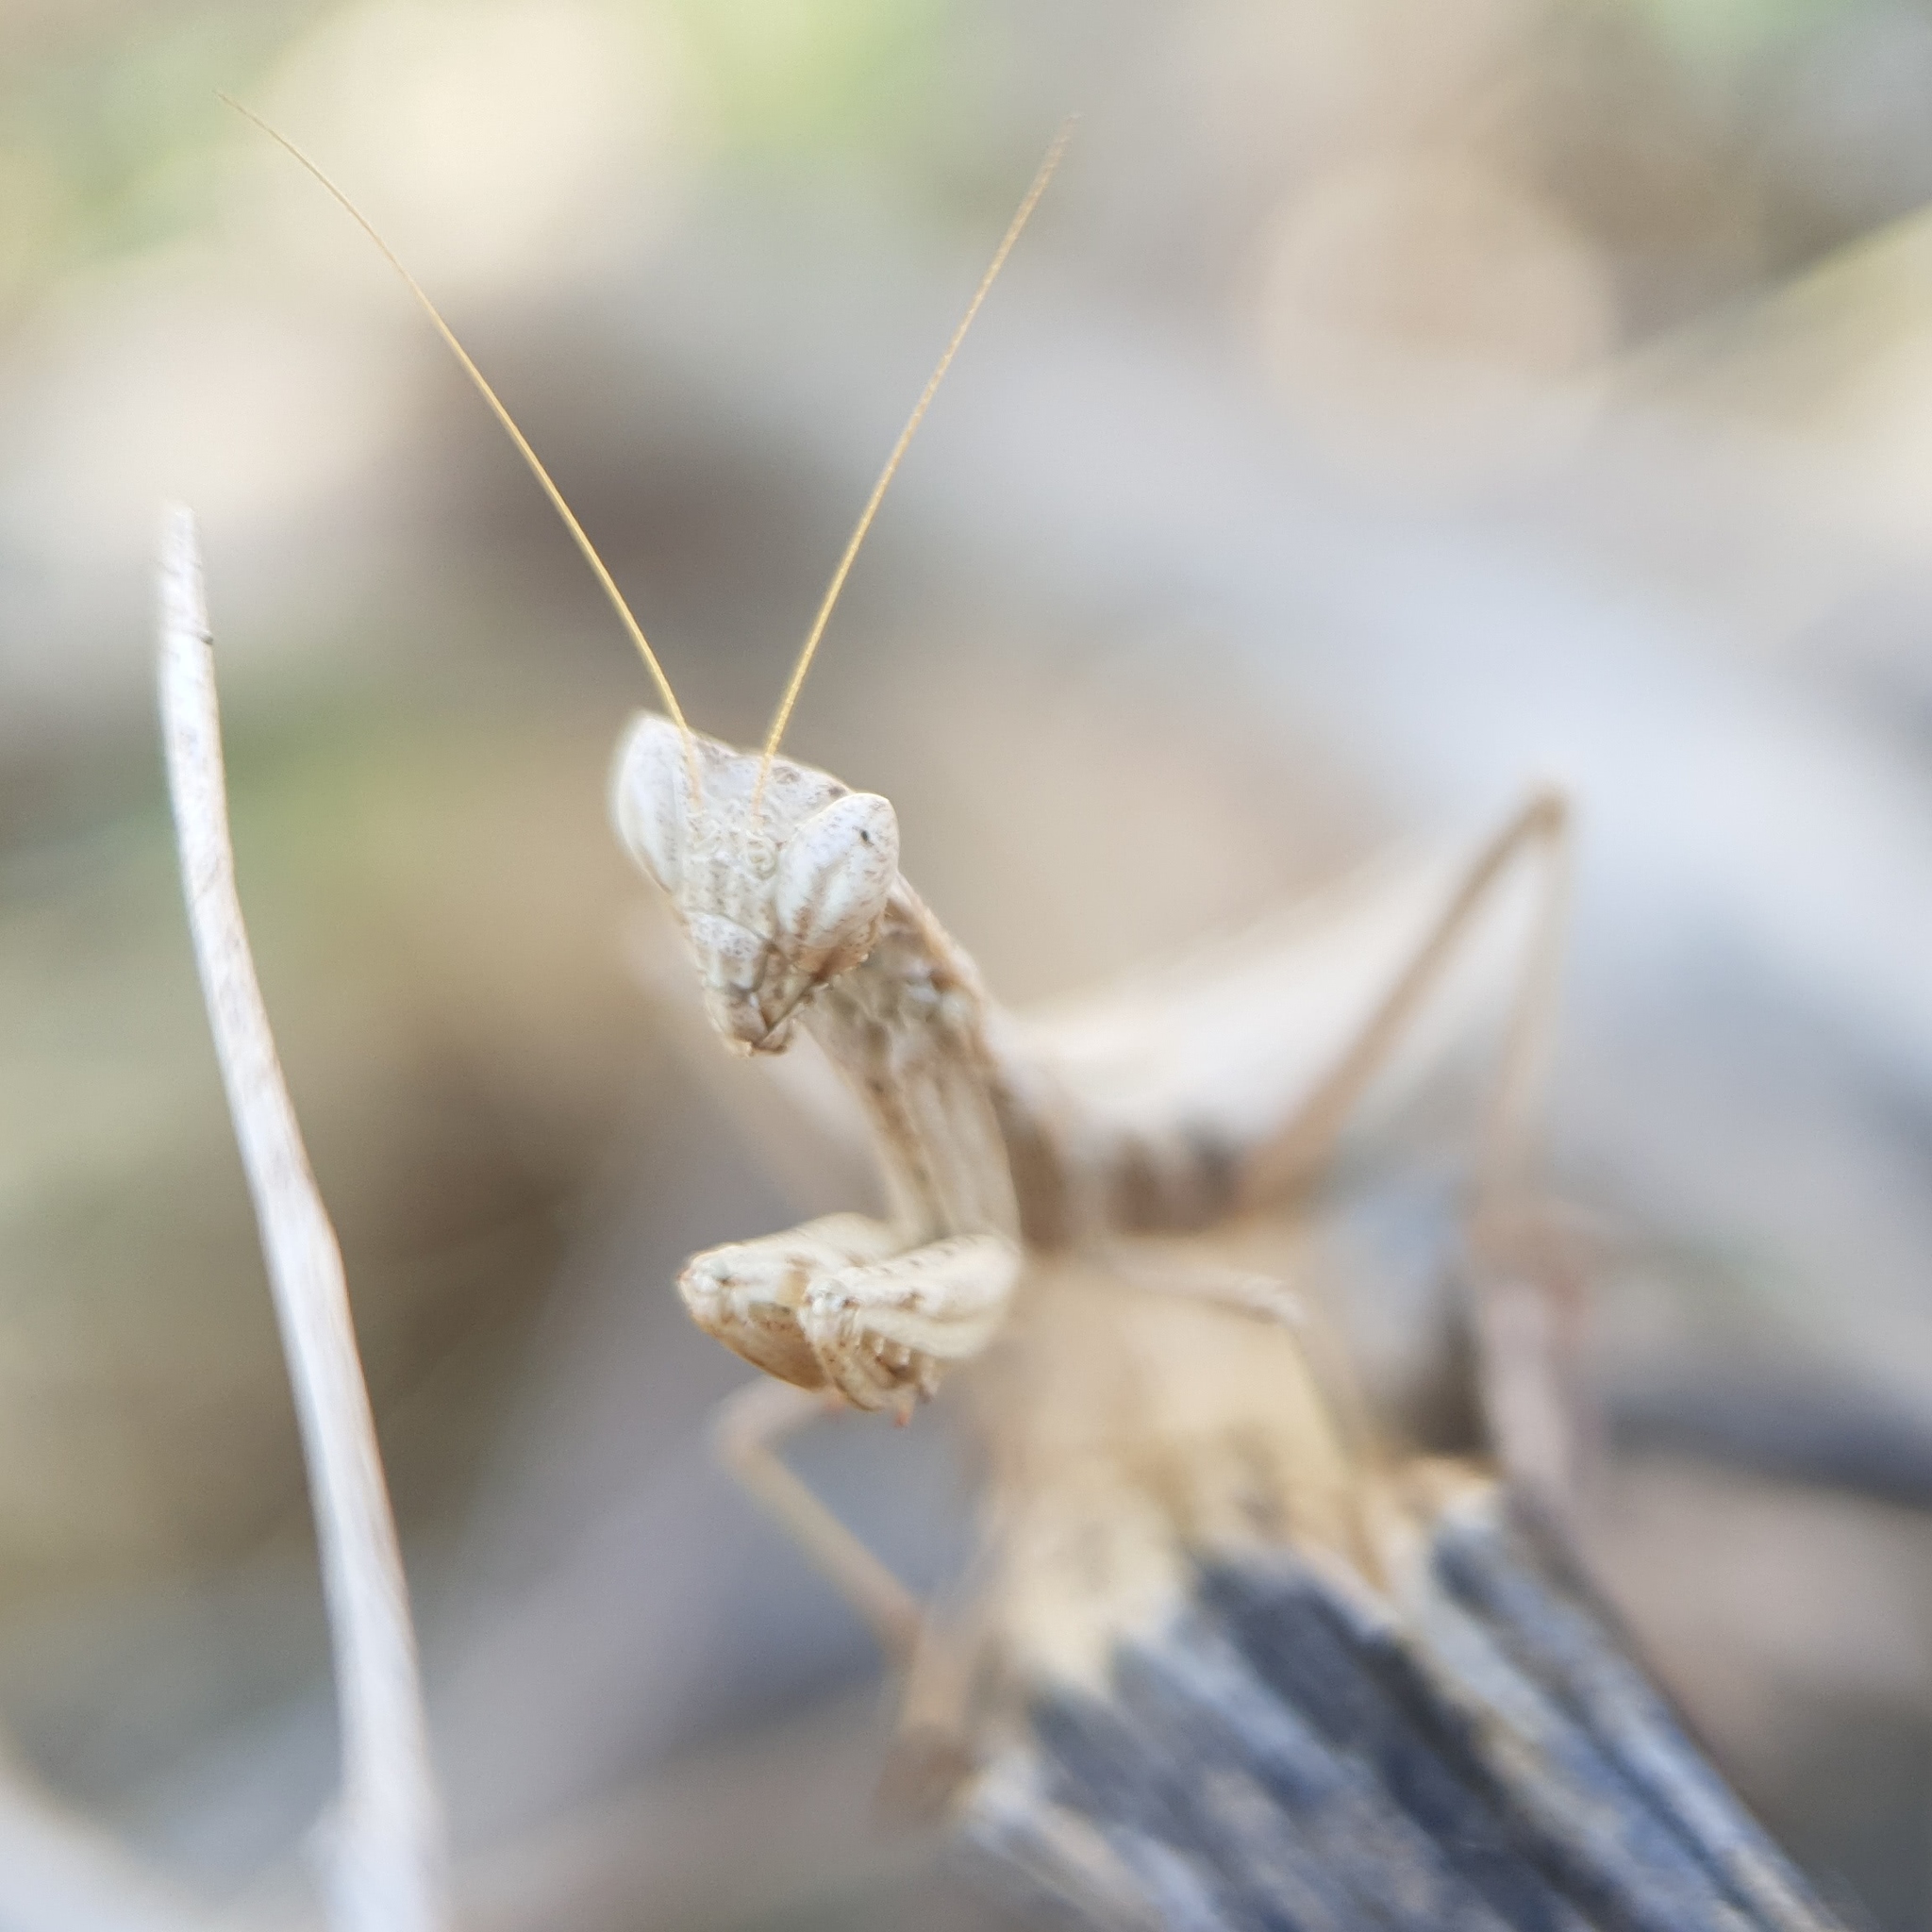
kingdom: Animalia
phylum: Arthropoda
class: Insecta
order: Mantodea
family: Amelidae
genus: Ameles
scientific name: Ameles heldreichi
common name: Heldreich's dwarf mantis
